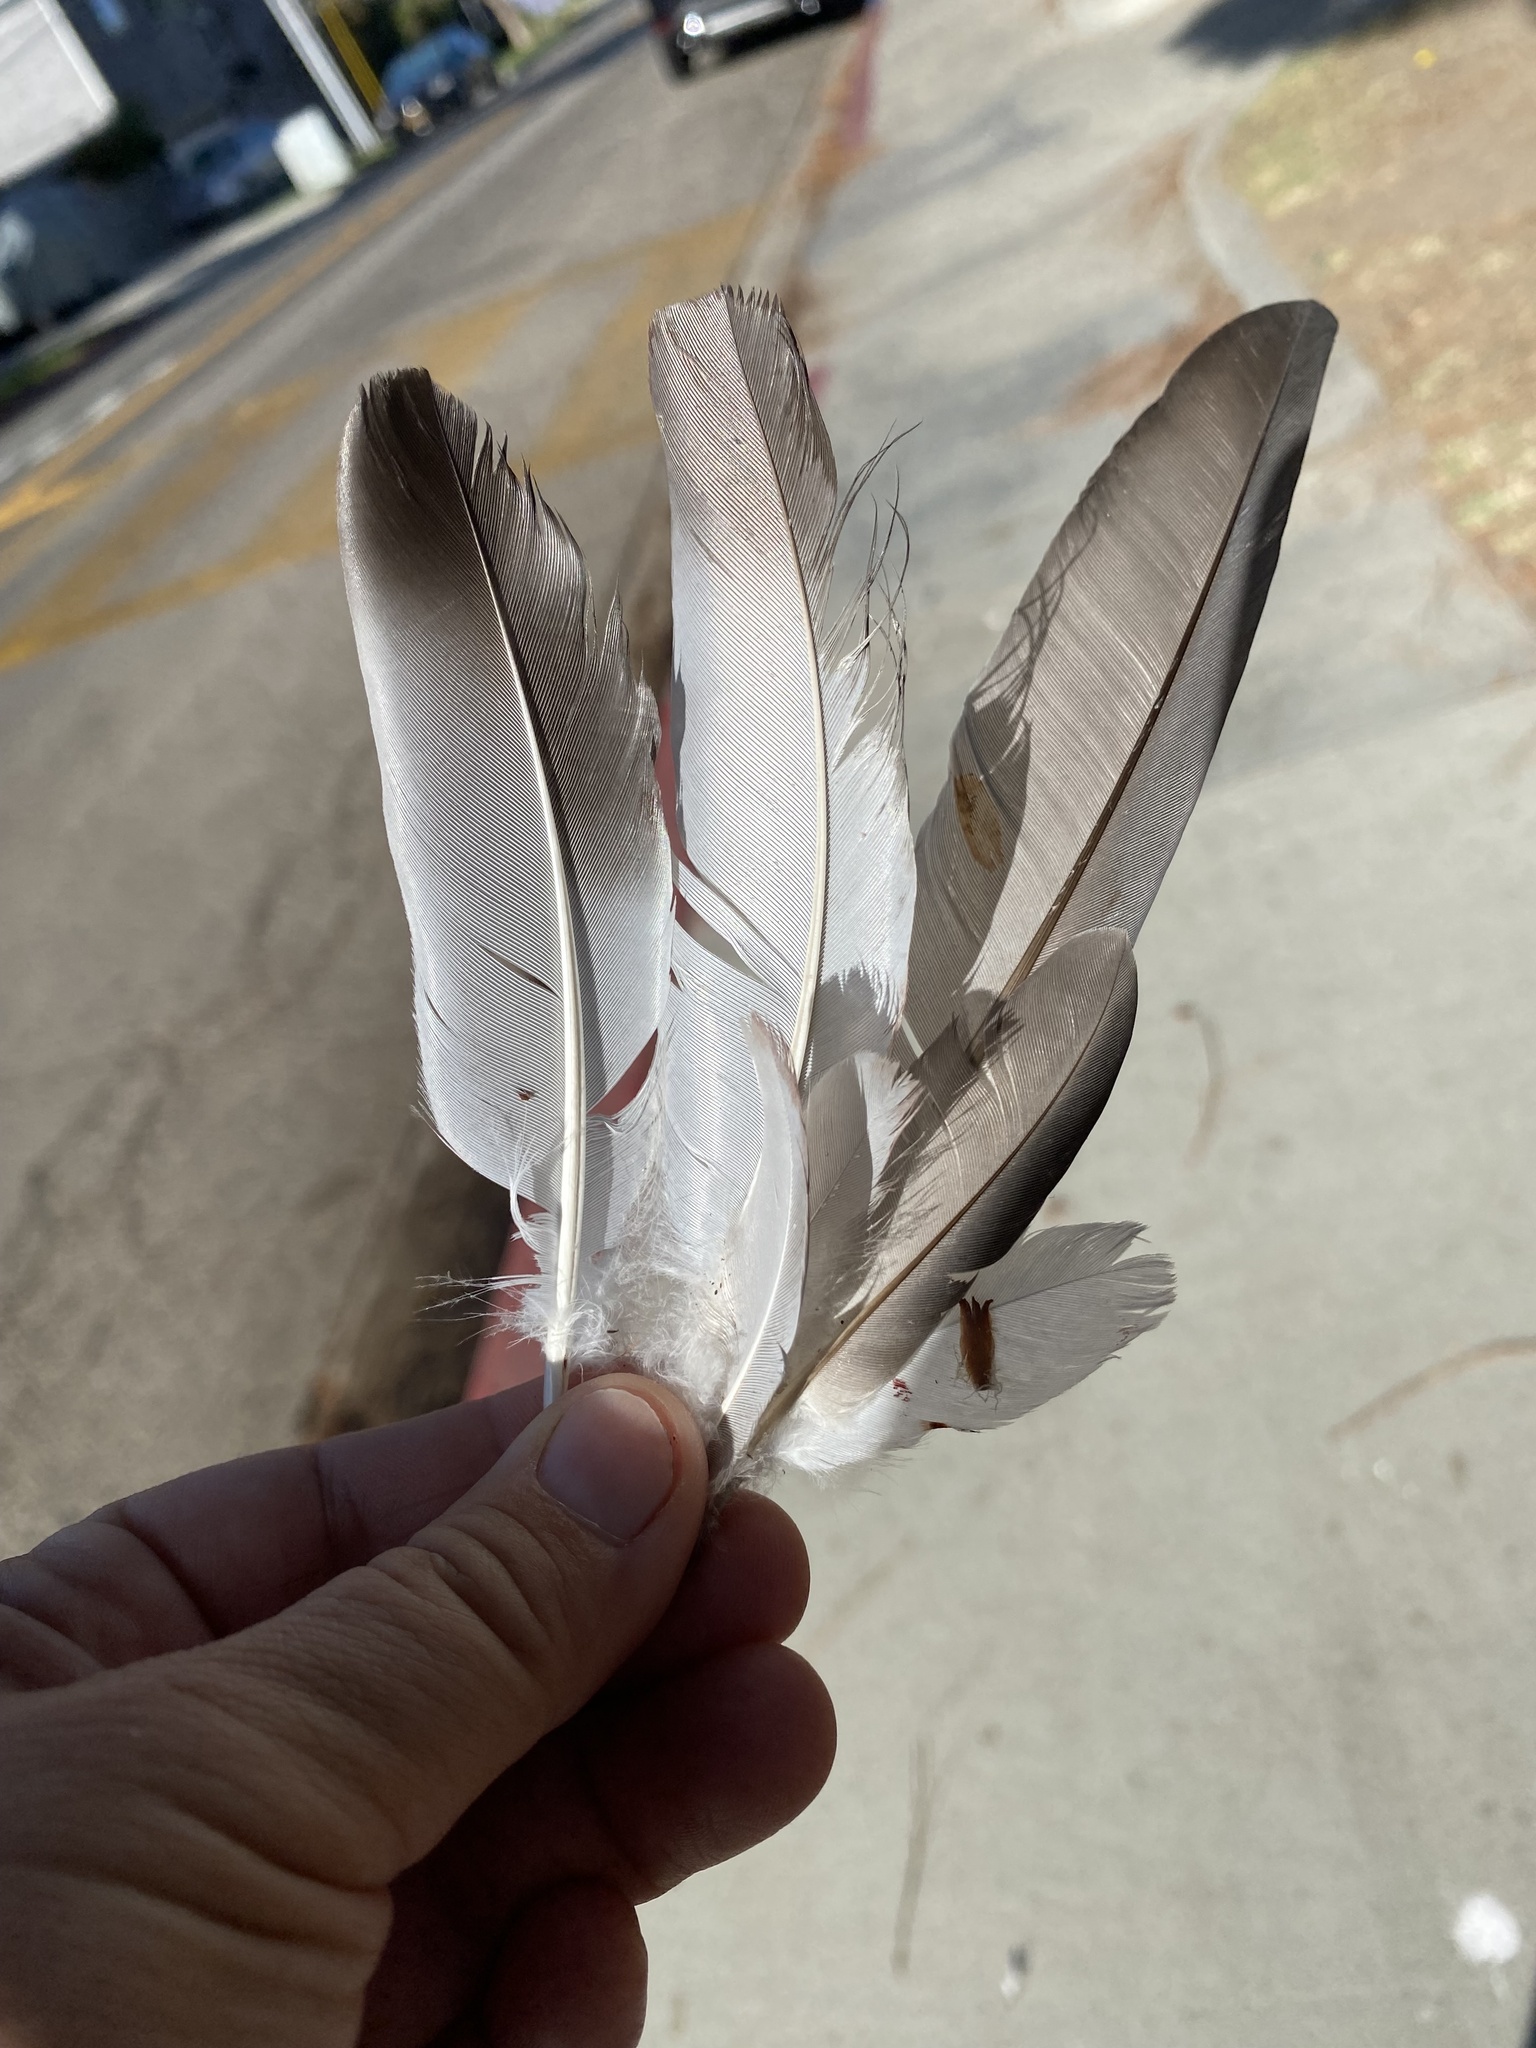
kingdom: Animalia
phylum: Chordata
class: Aves
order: Columbiformes
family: Columbidae
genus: Columba
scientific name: Columba livia
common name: Rock pigeon
